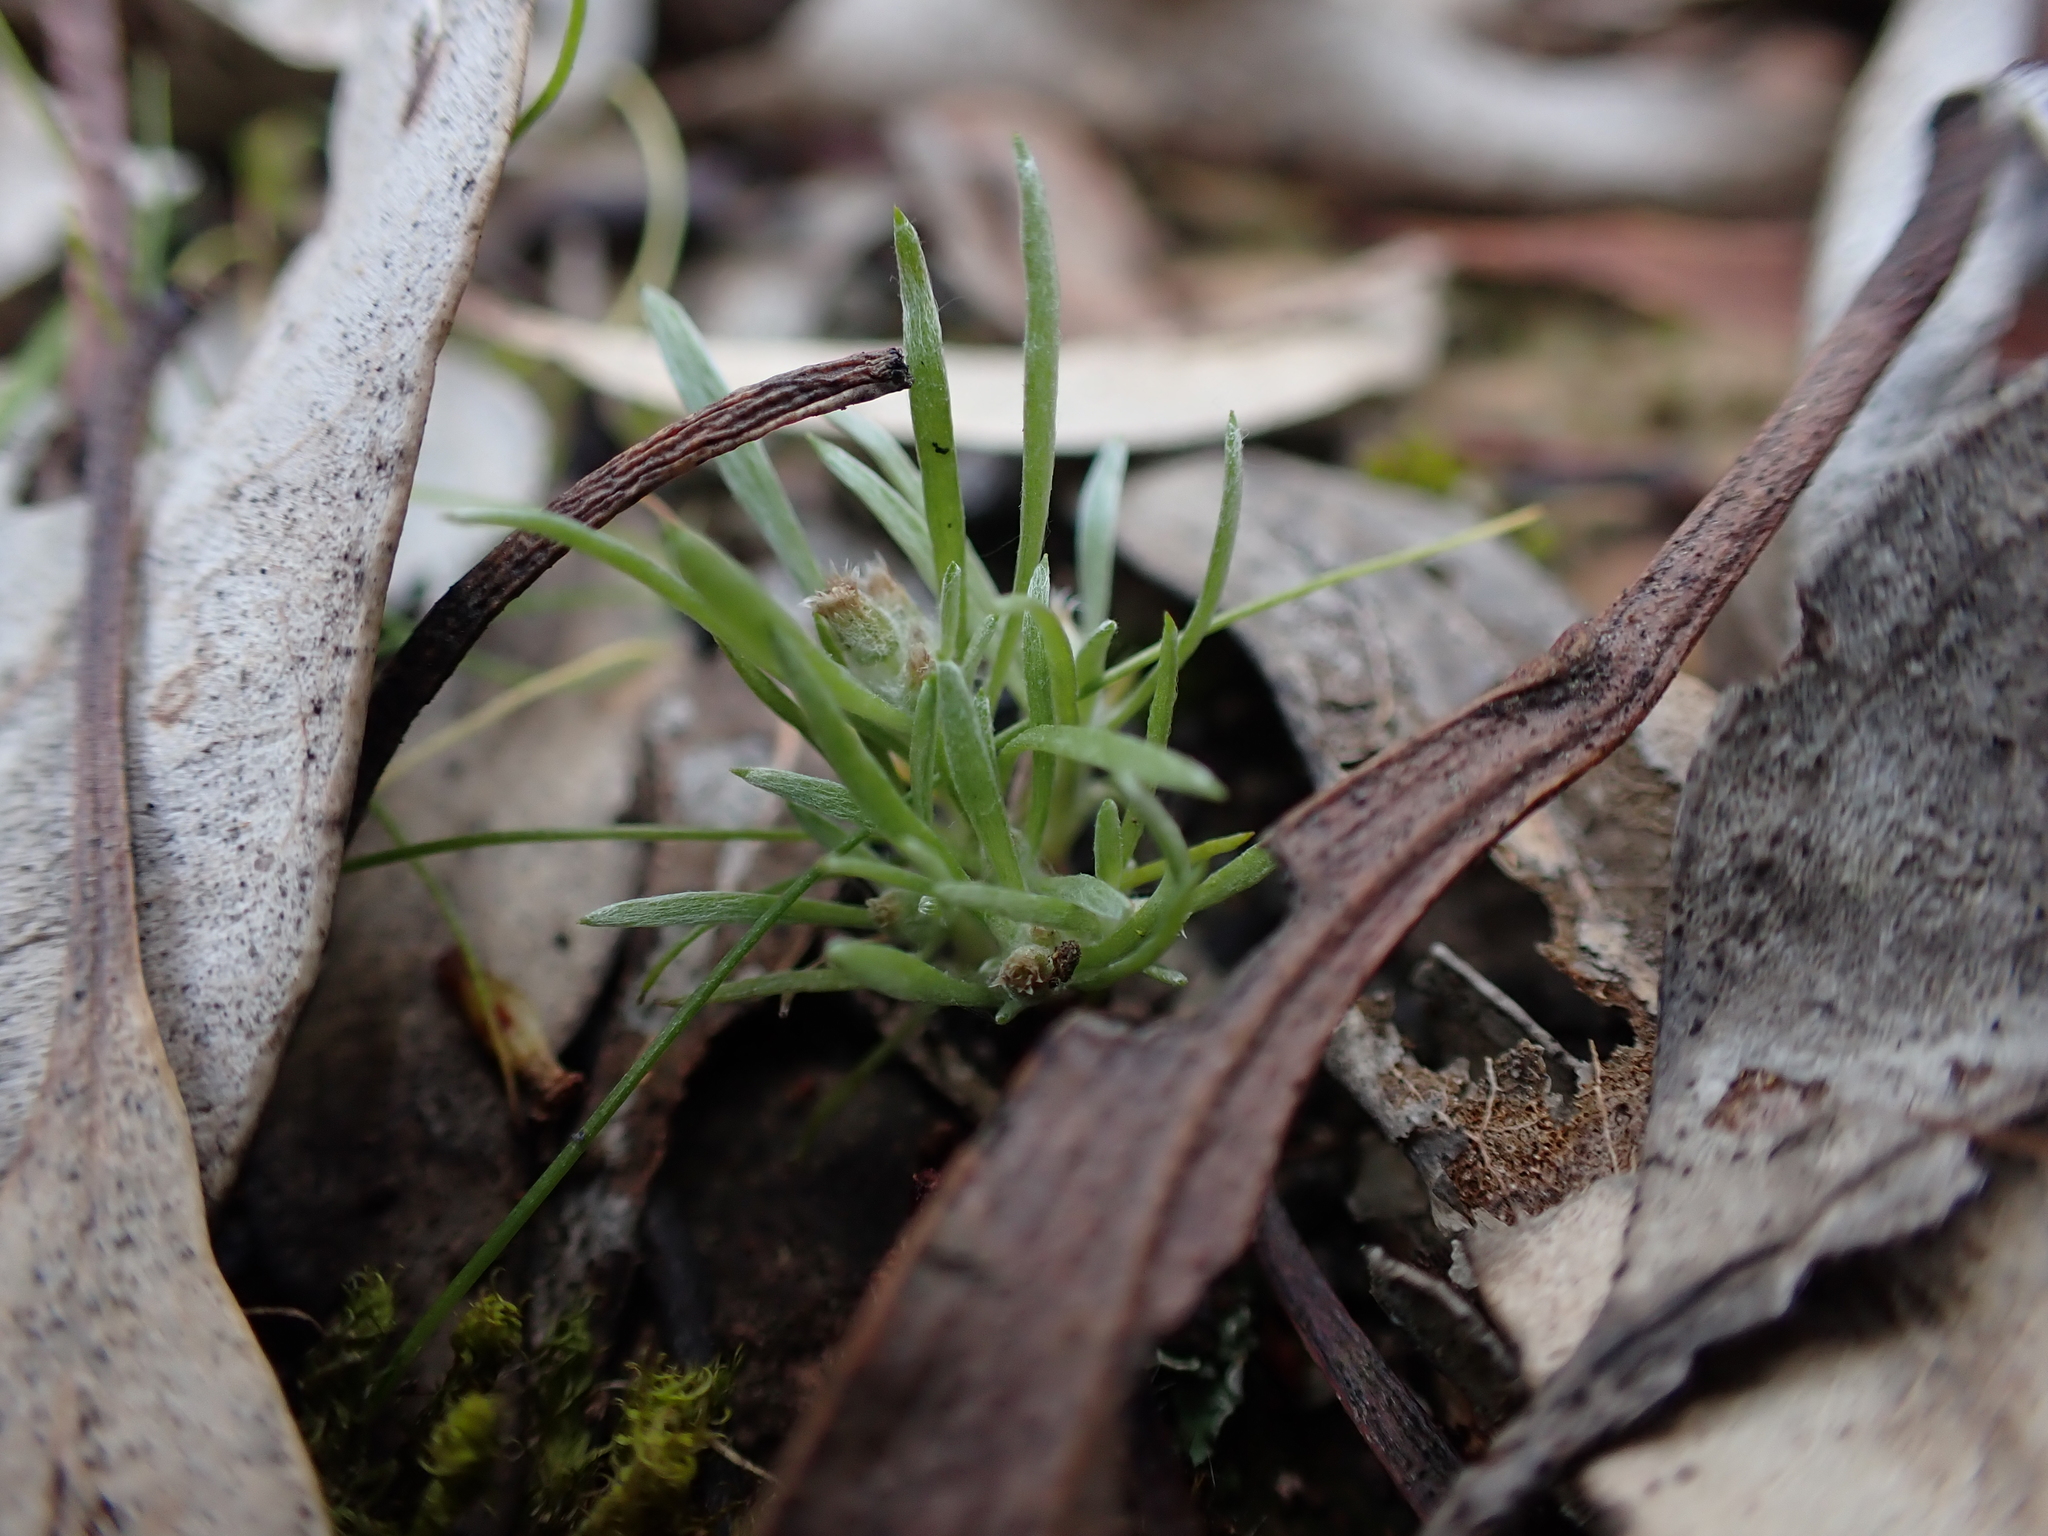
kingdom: Plantae
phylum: Tracheophyta
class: Magnoliopsida
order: Asterales
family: Asteraceae
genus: Gnaphalium
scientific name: Gnaphalium indutum
